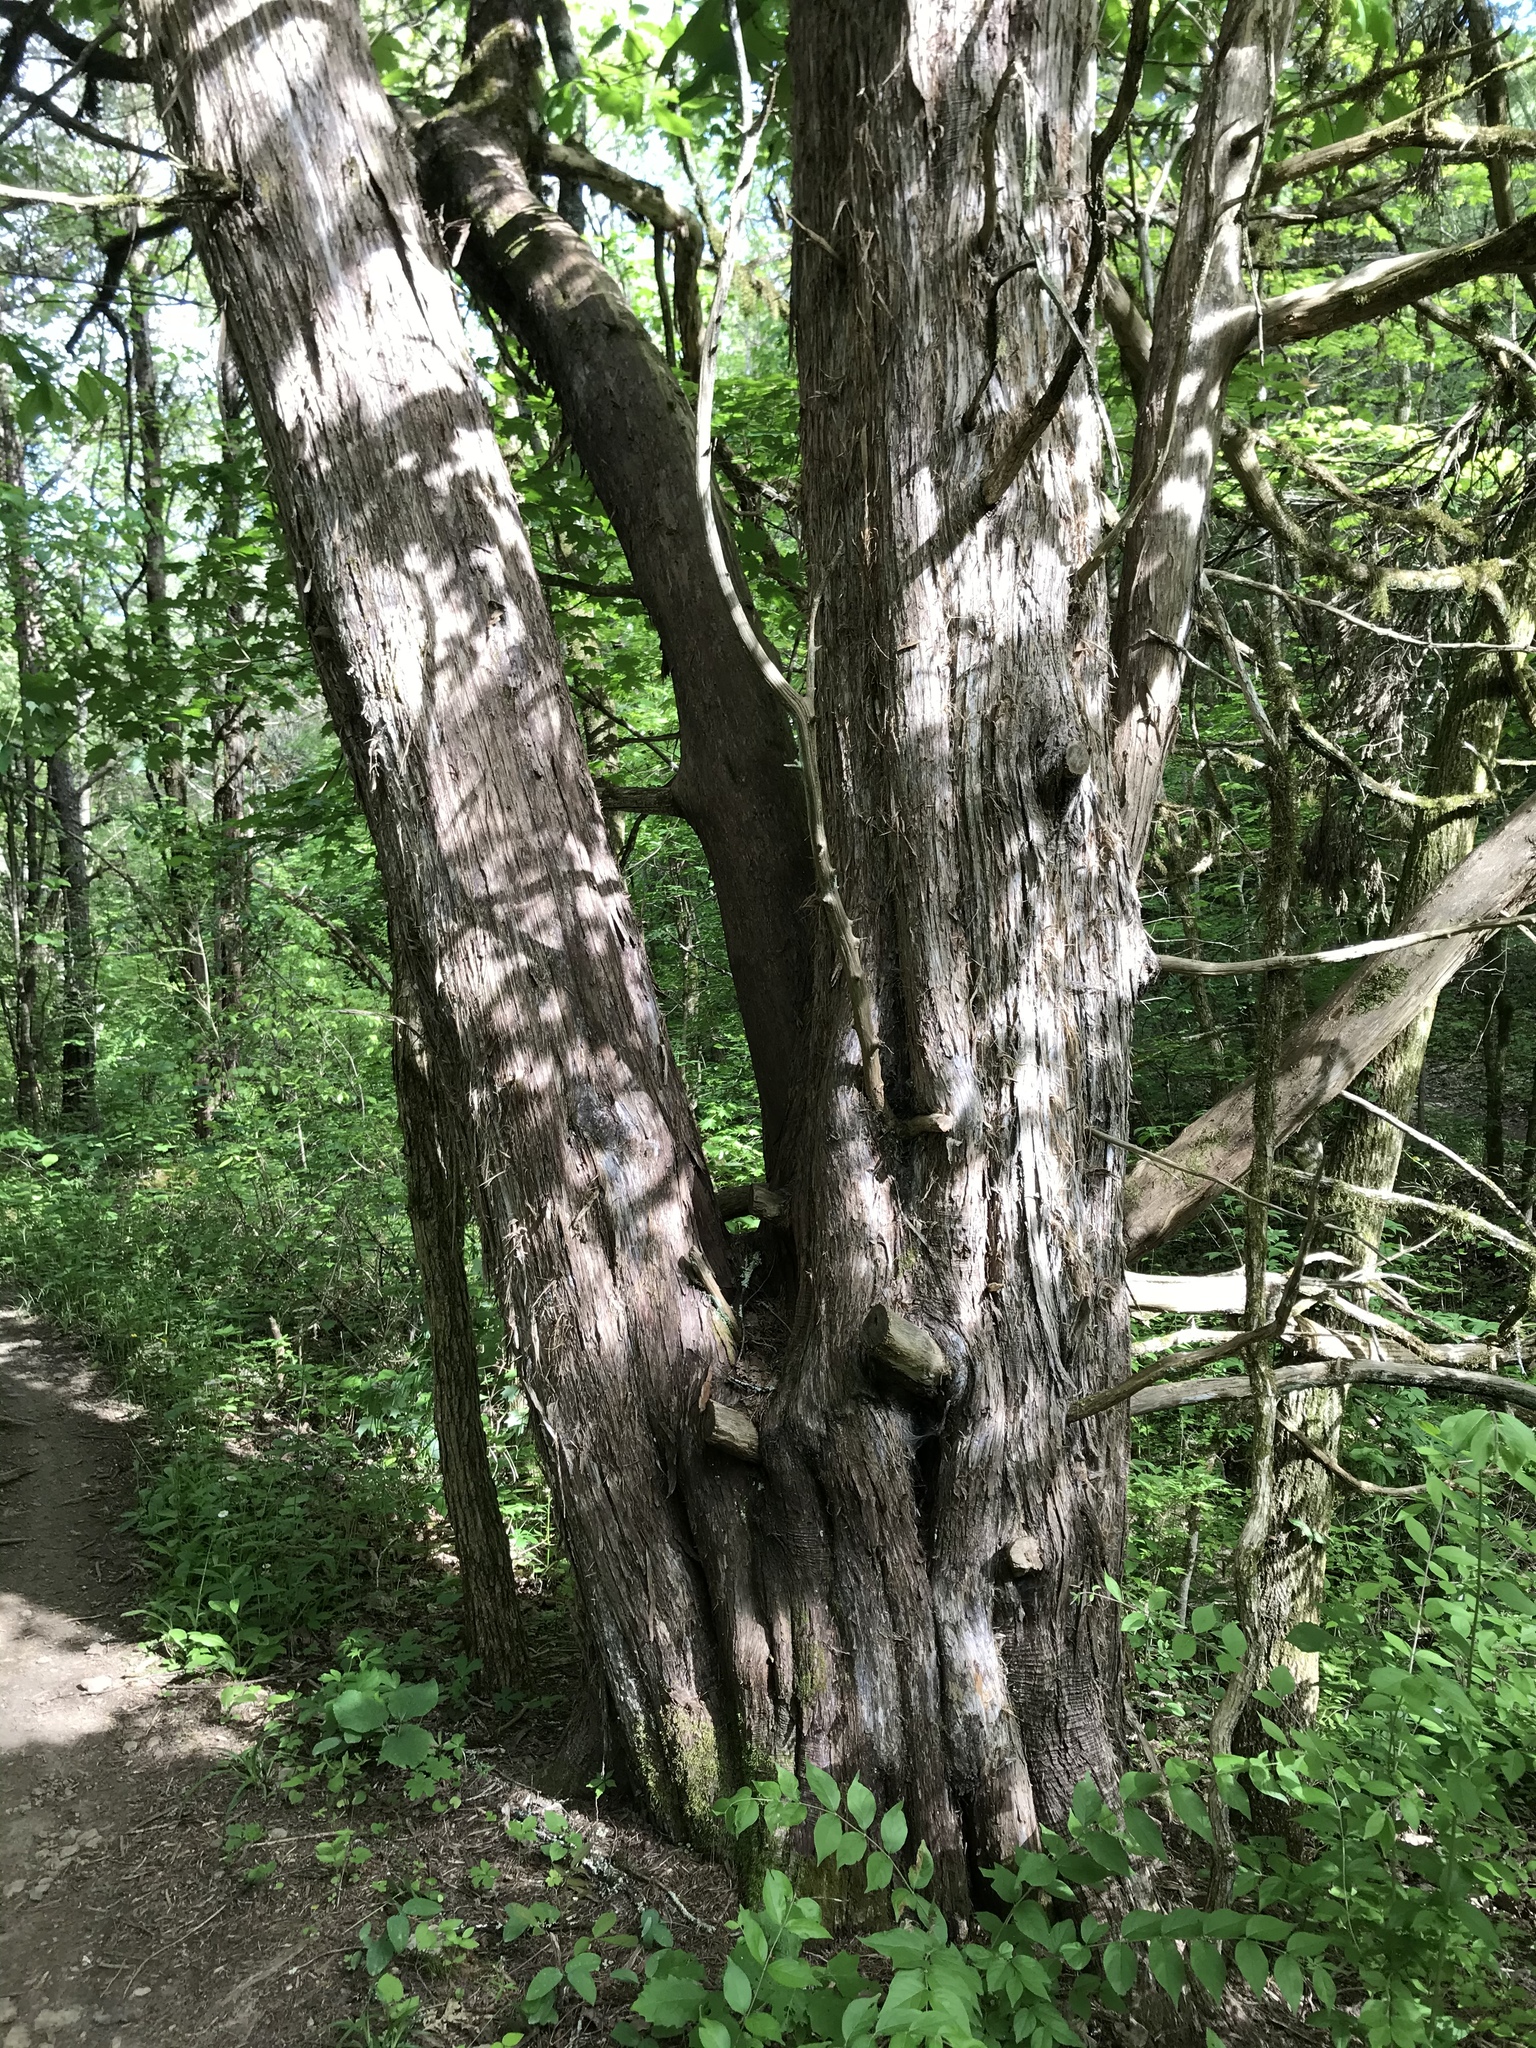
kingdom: Plantae
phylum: Tracheophyta
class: Pinopsida
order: Pinales
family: Cupressaceae
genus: Juniperus
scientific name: Juniperus virginiana
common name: Red juniper
